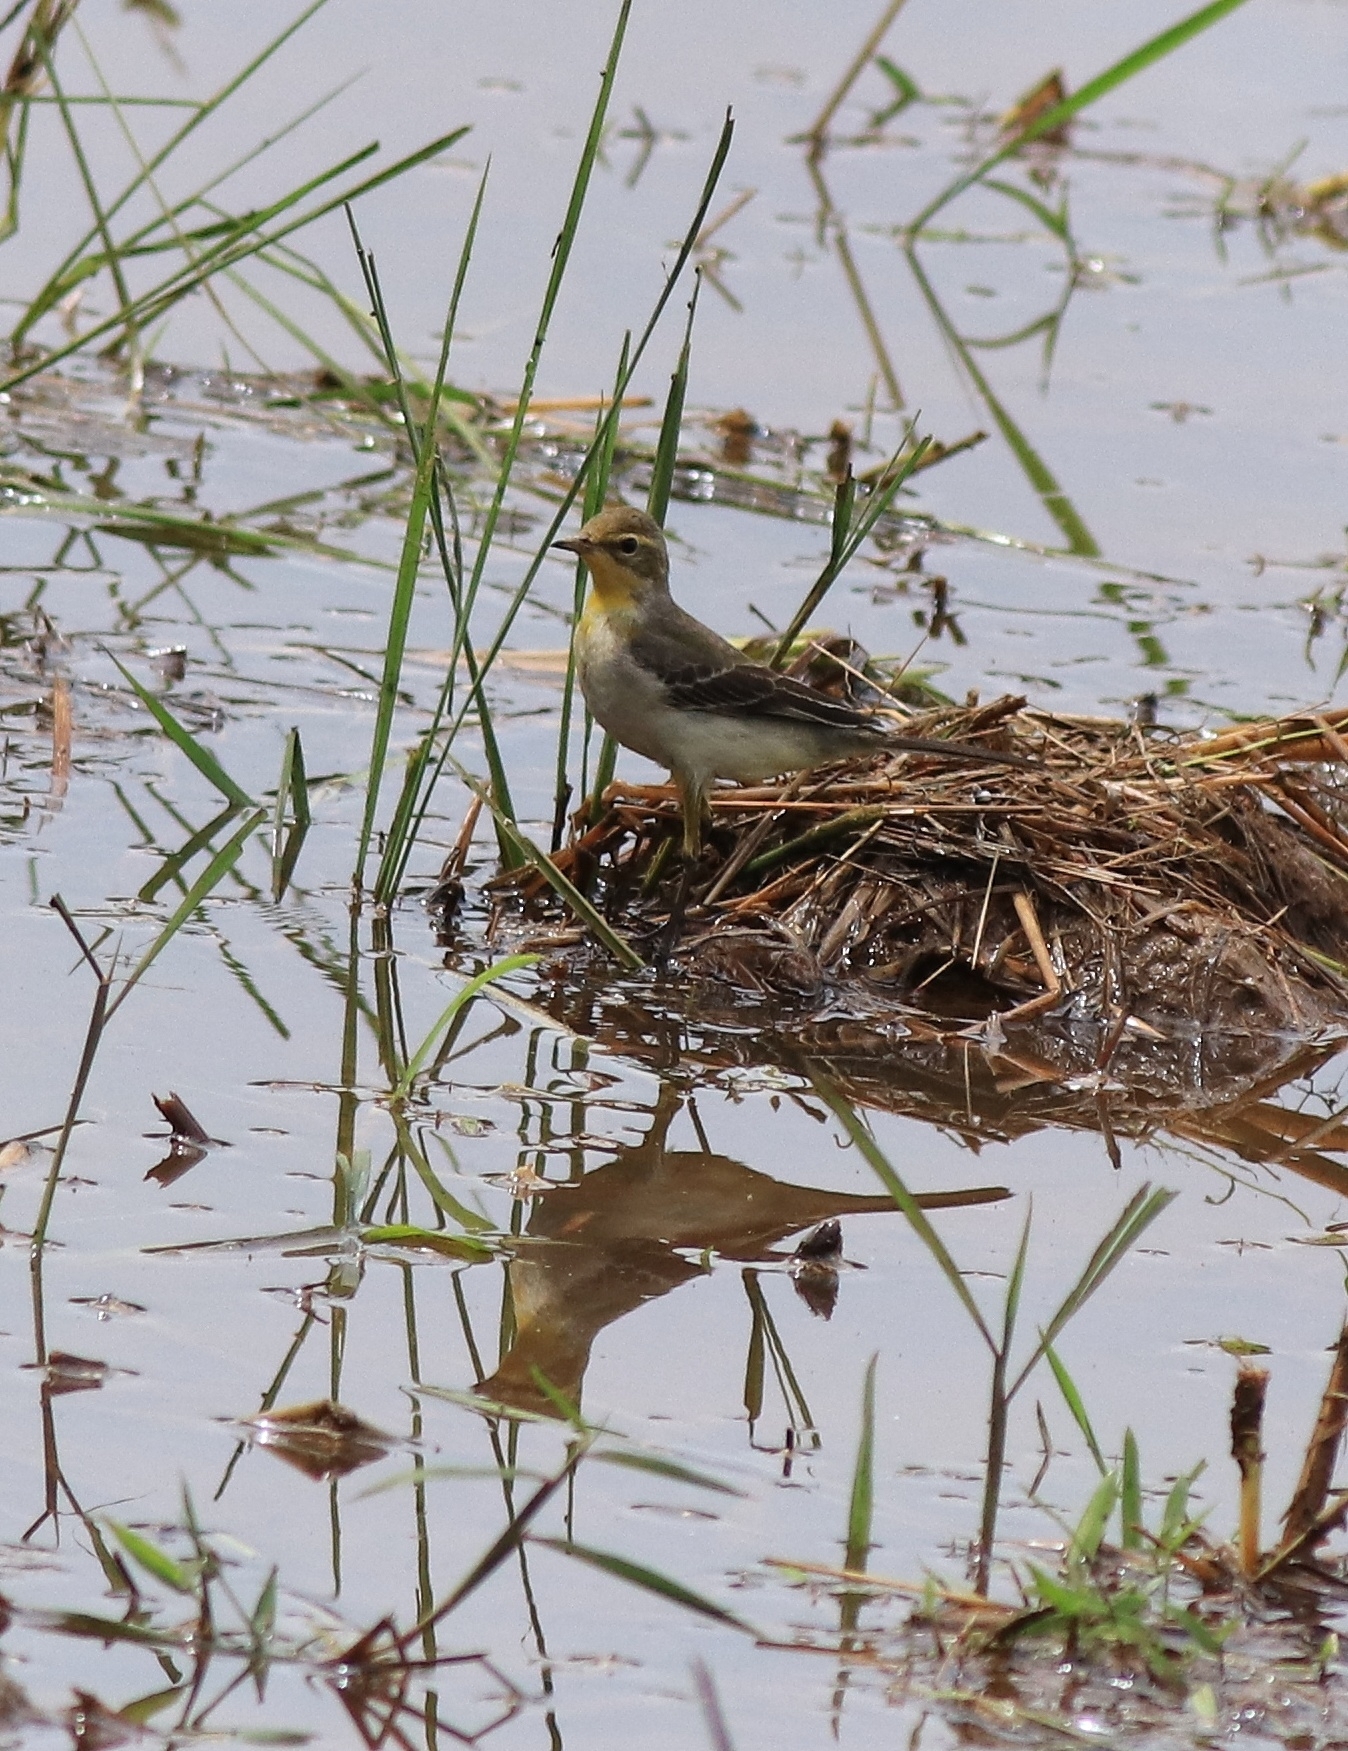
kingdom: Animalia
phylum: Chordata
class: Aves
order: Passeriformes
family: Motacillidae
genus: Motacilla
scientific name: Motacilla flava
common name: Western yellow wagtail
